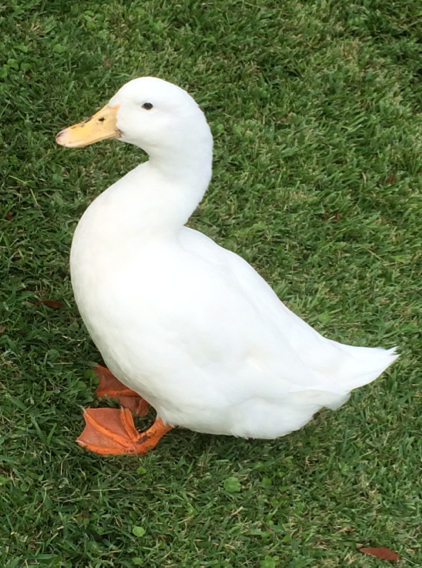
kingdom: Animalia
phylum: Chordata
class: Aves
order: Anseriformes
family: Anatidae
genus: Anas
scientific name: Anas platyrhynchos
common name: Mallard
